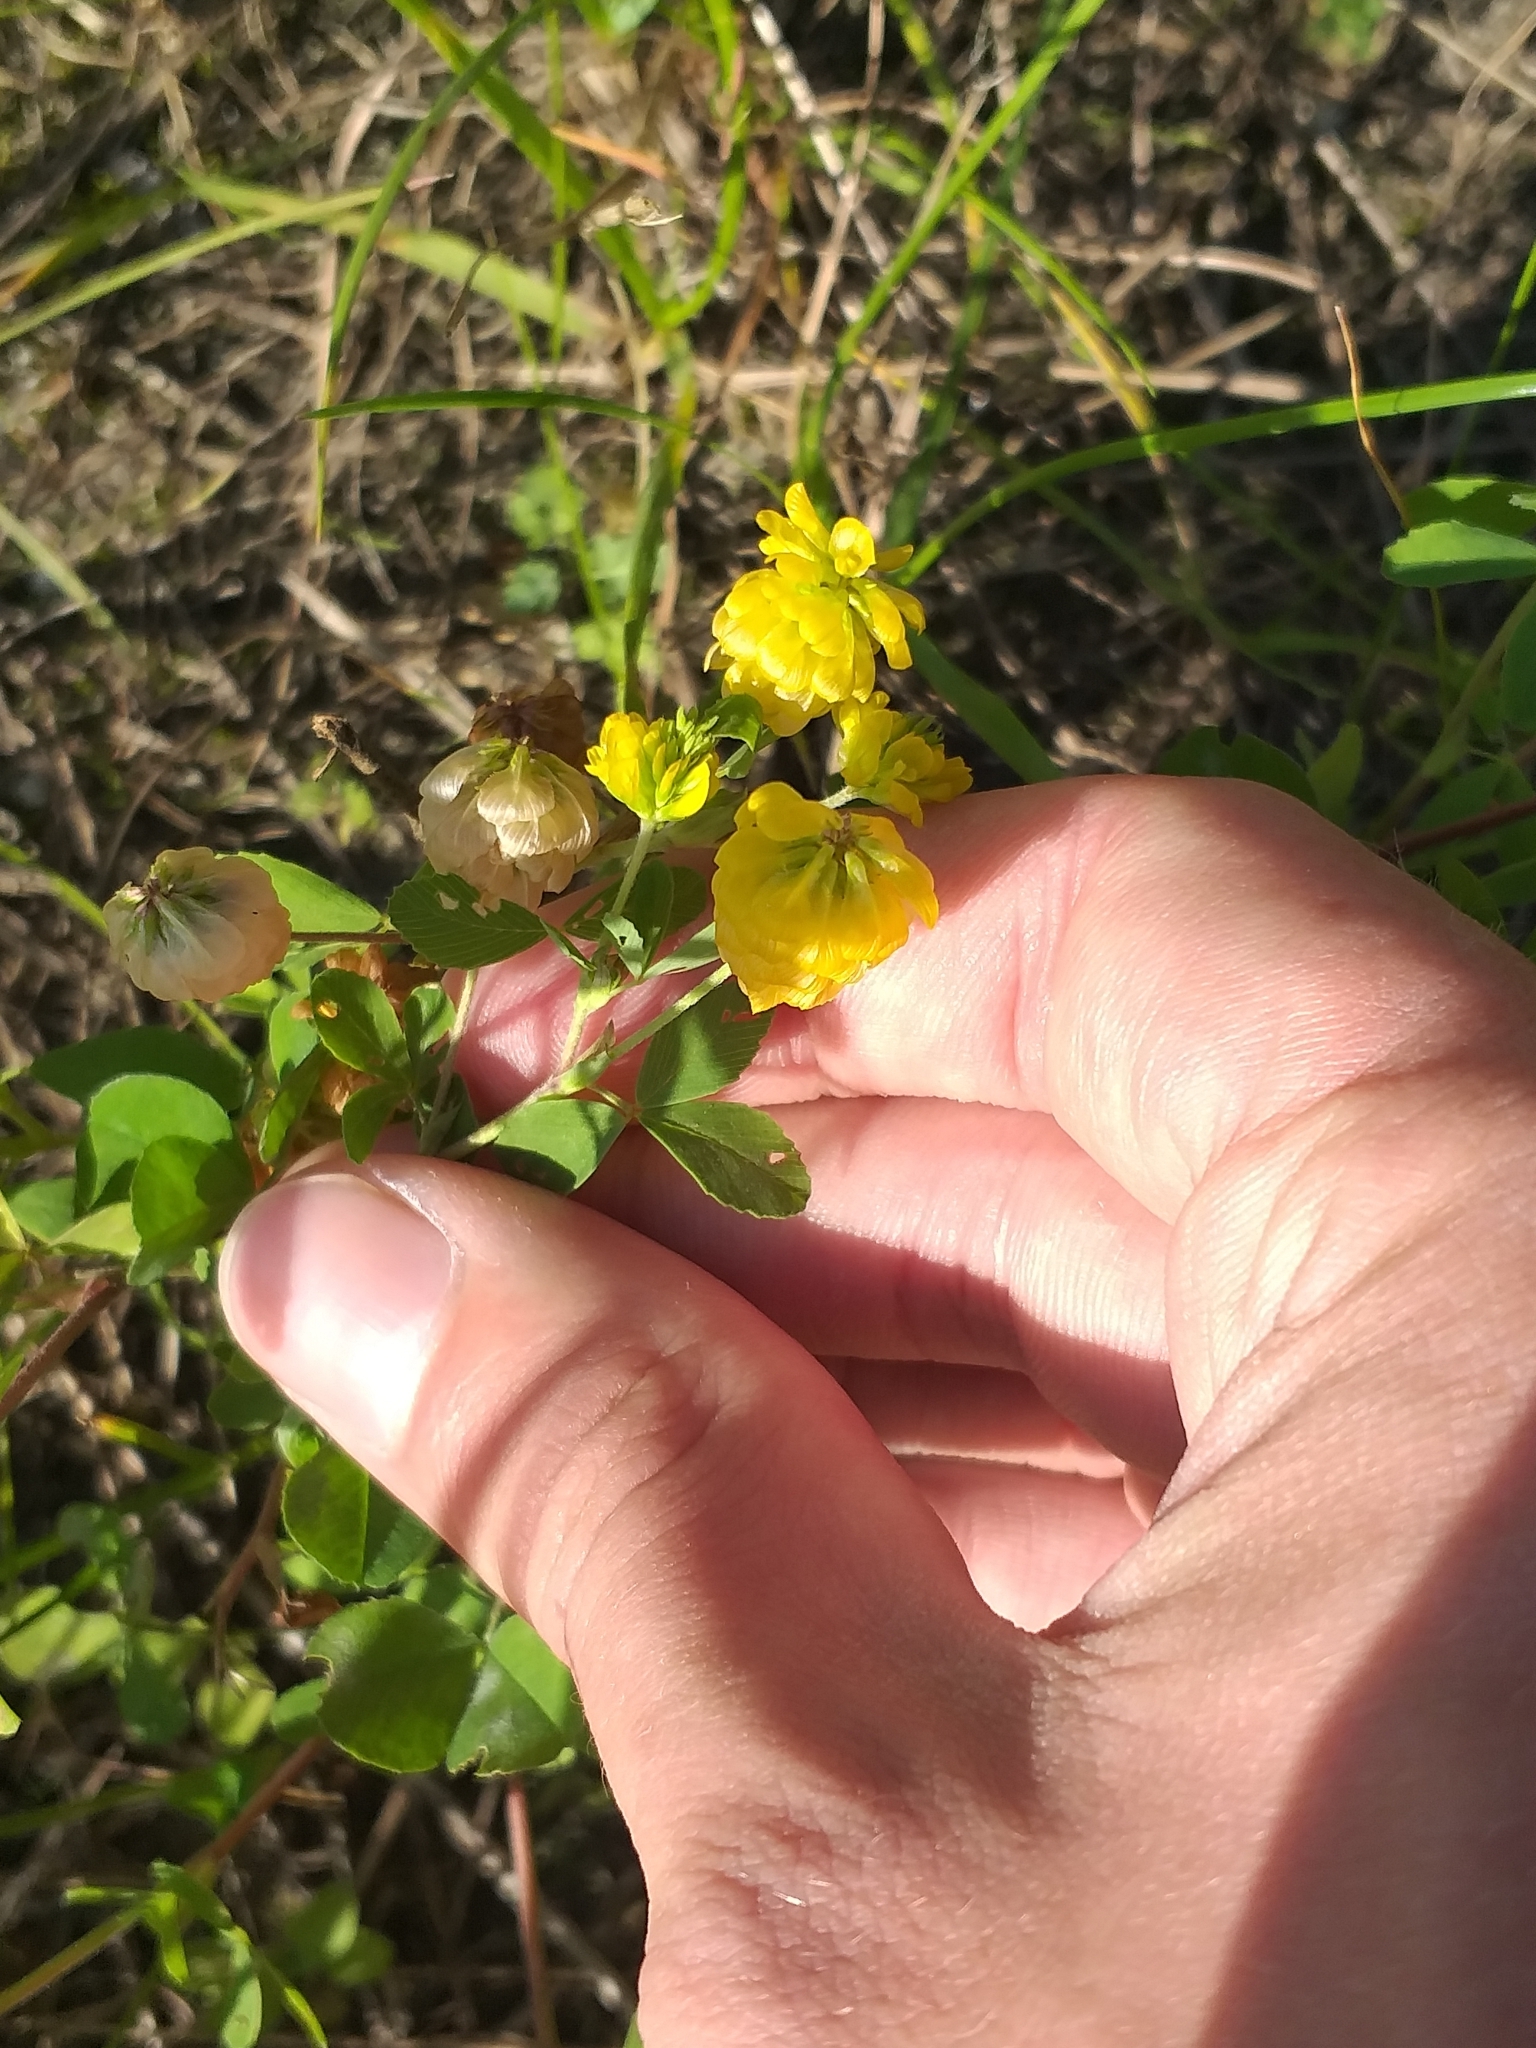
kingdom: Plantae
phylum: Tracheophyta
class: Magnoliopsida
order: Fabales
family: Fabaceae
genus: Trifolium
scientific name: Trifolium aureum
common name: Golden clover
